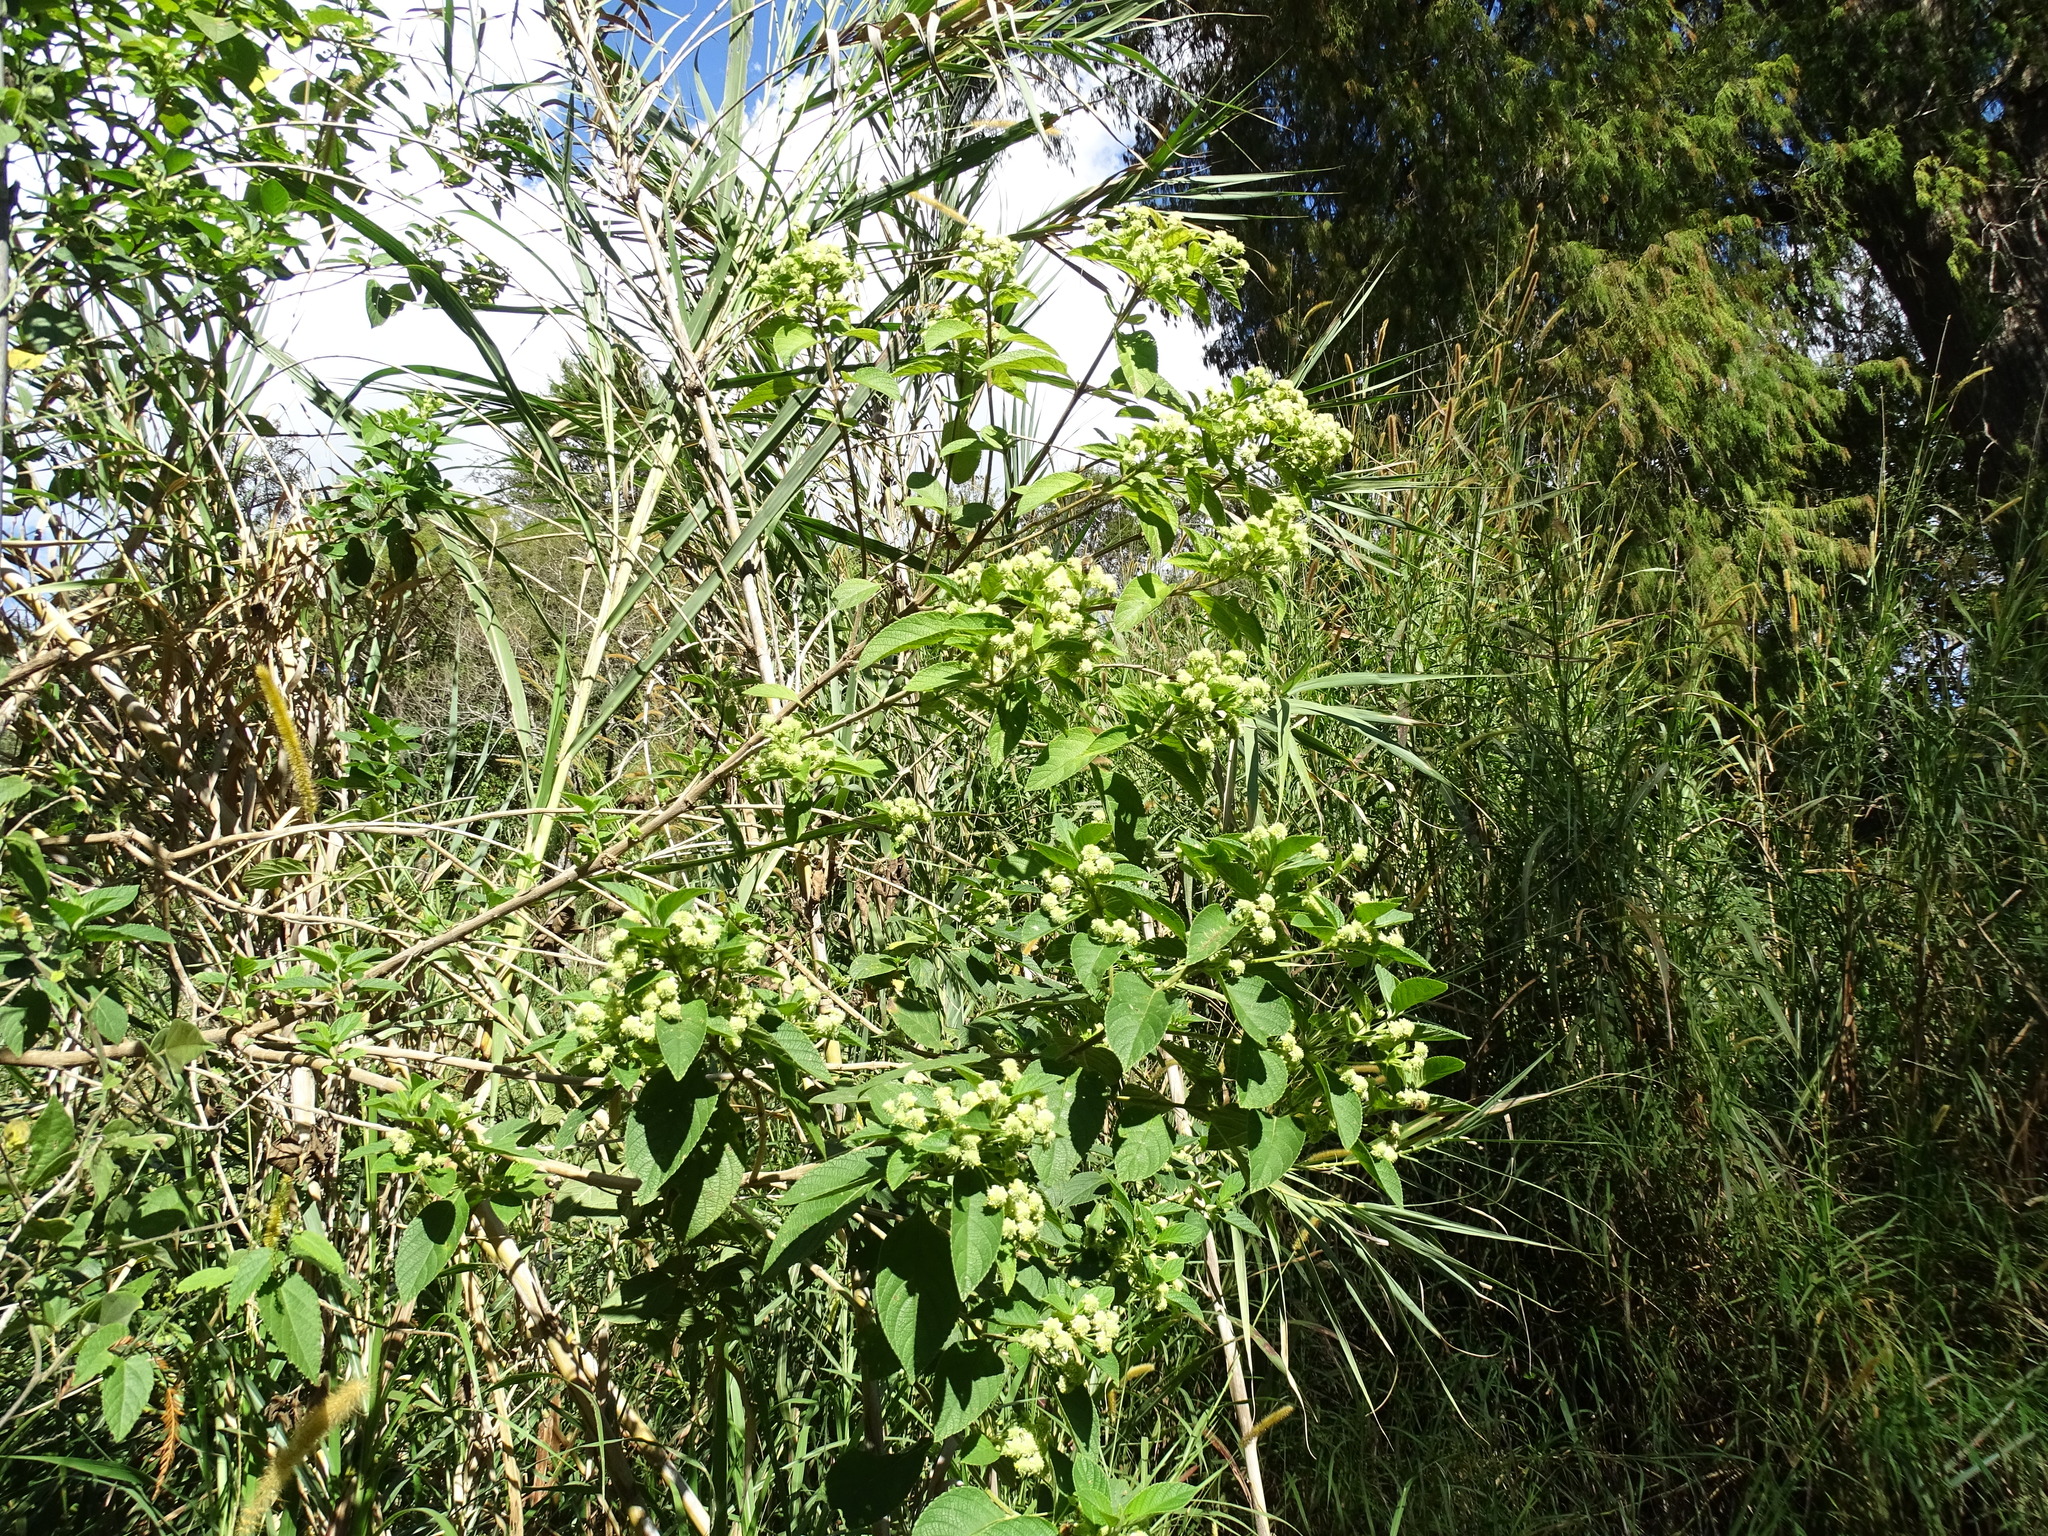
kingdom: Plantae
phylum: Tracheophyta
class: Magnoliopsida
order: Lamiales
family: Verbenaceae
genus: Lippia
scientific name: Lippia gentryi
